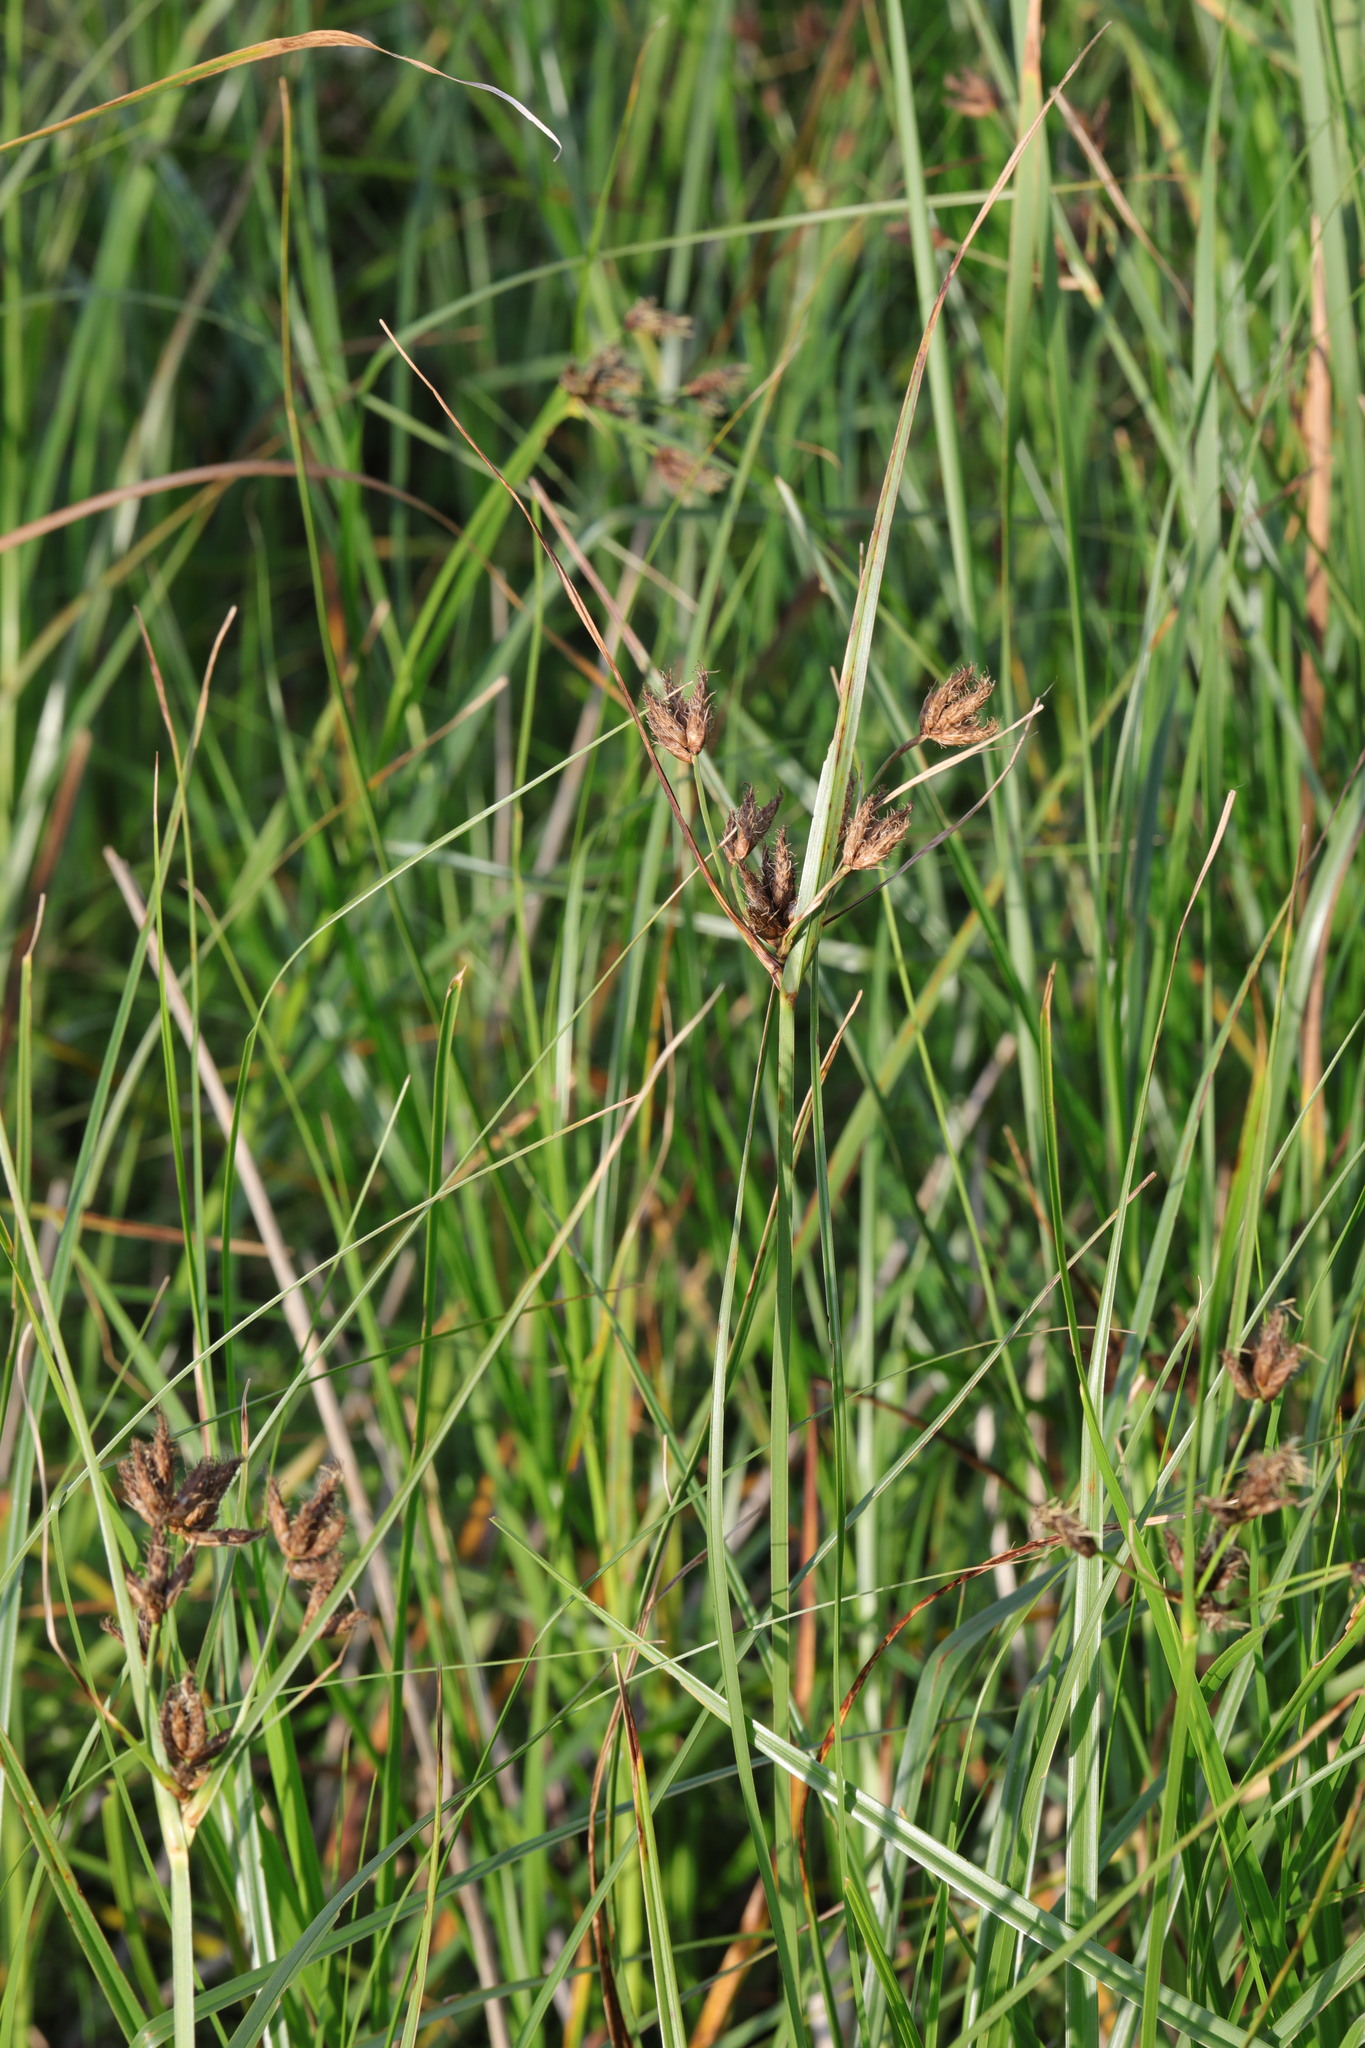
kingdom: Plantae
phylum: Tracheophyta
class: Liliopsida
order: Poales
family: Cyperaceae
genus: Bolboschoenus
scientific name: Bolboschoenus maritimus
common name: Sea club-rush
